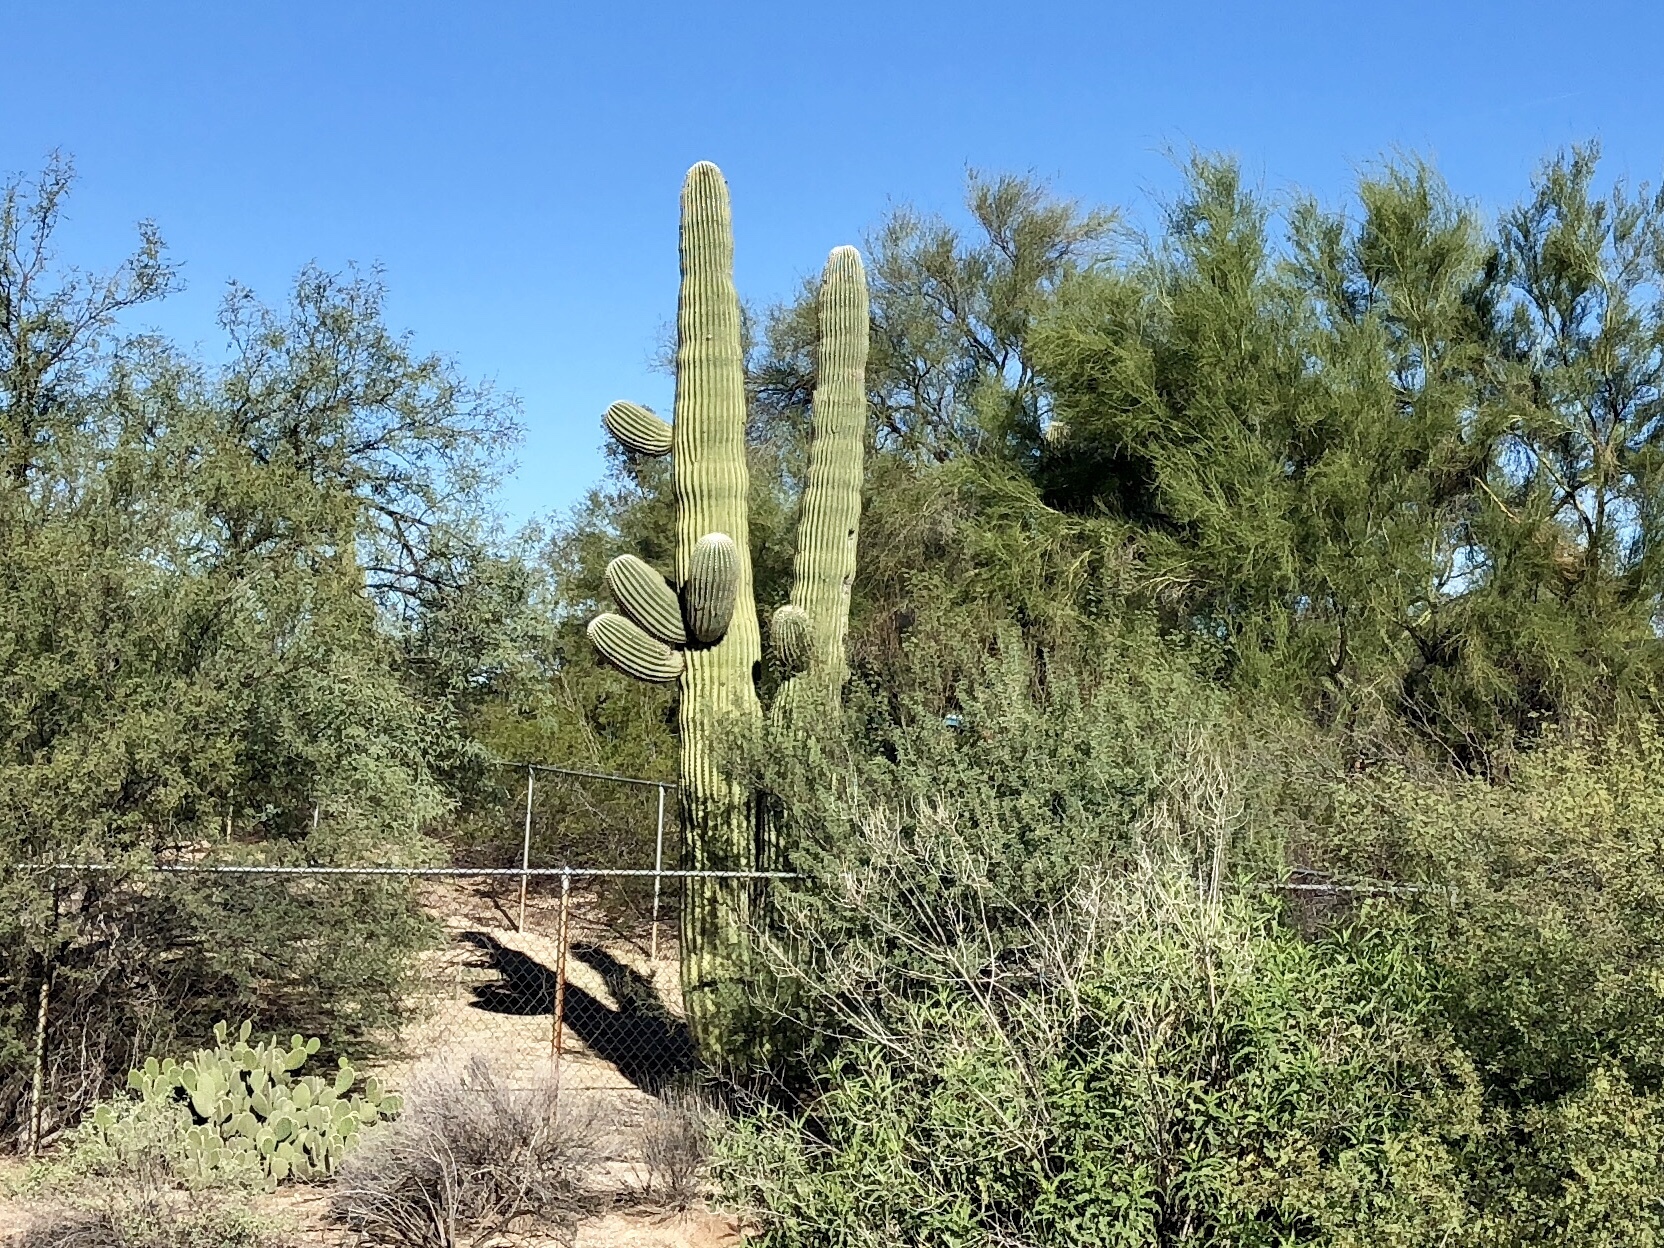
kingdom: Plantae
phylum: Tracheophyta
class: Magnoliopsida
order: Caryophyllales
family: Cactaceae
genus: Carnegiea
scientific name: Carnegiea gigantea
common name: Saguaro
